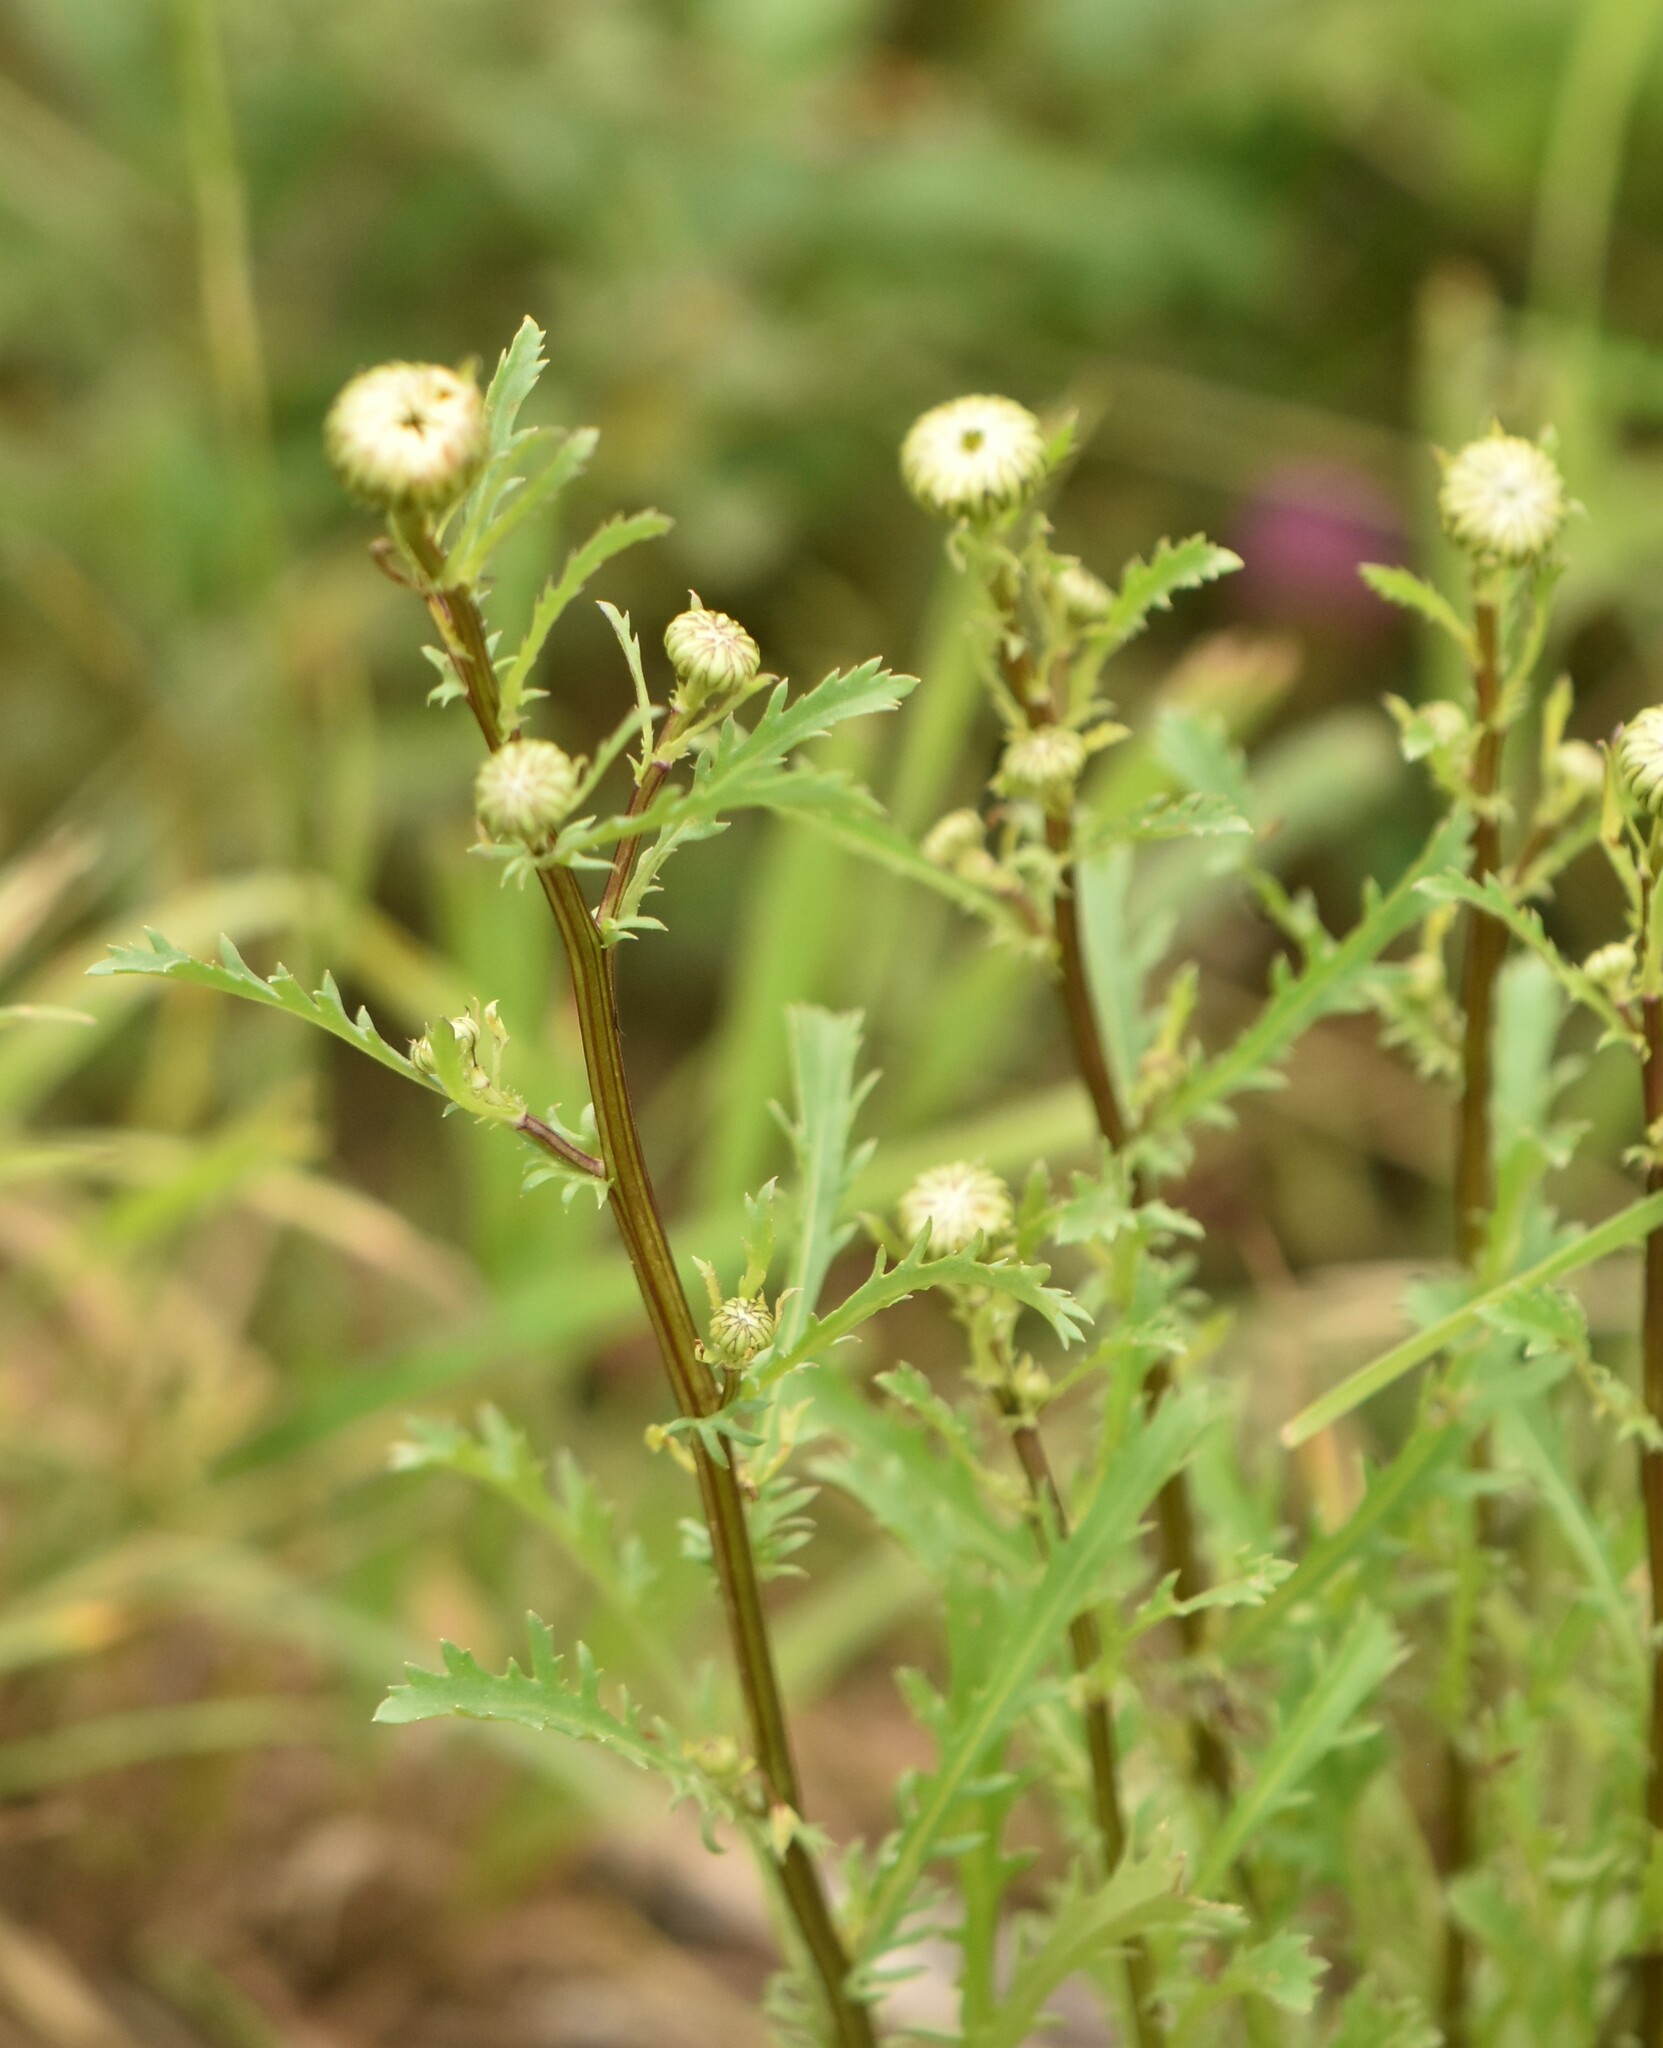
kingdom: Plantae
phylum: Tracheophyta
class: Magnoliopsida
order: Asterales
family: Asteraceae
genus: Leucanthemum
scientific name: Leucanthemum vulgare
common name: Oxeye daisy
